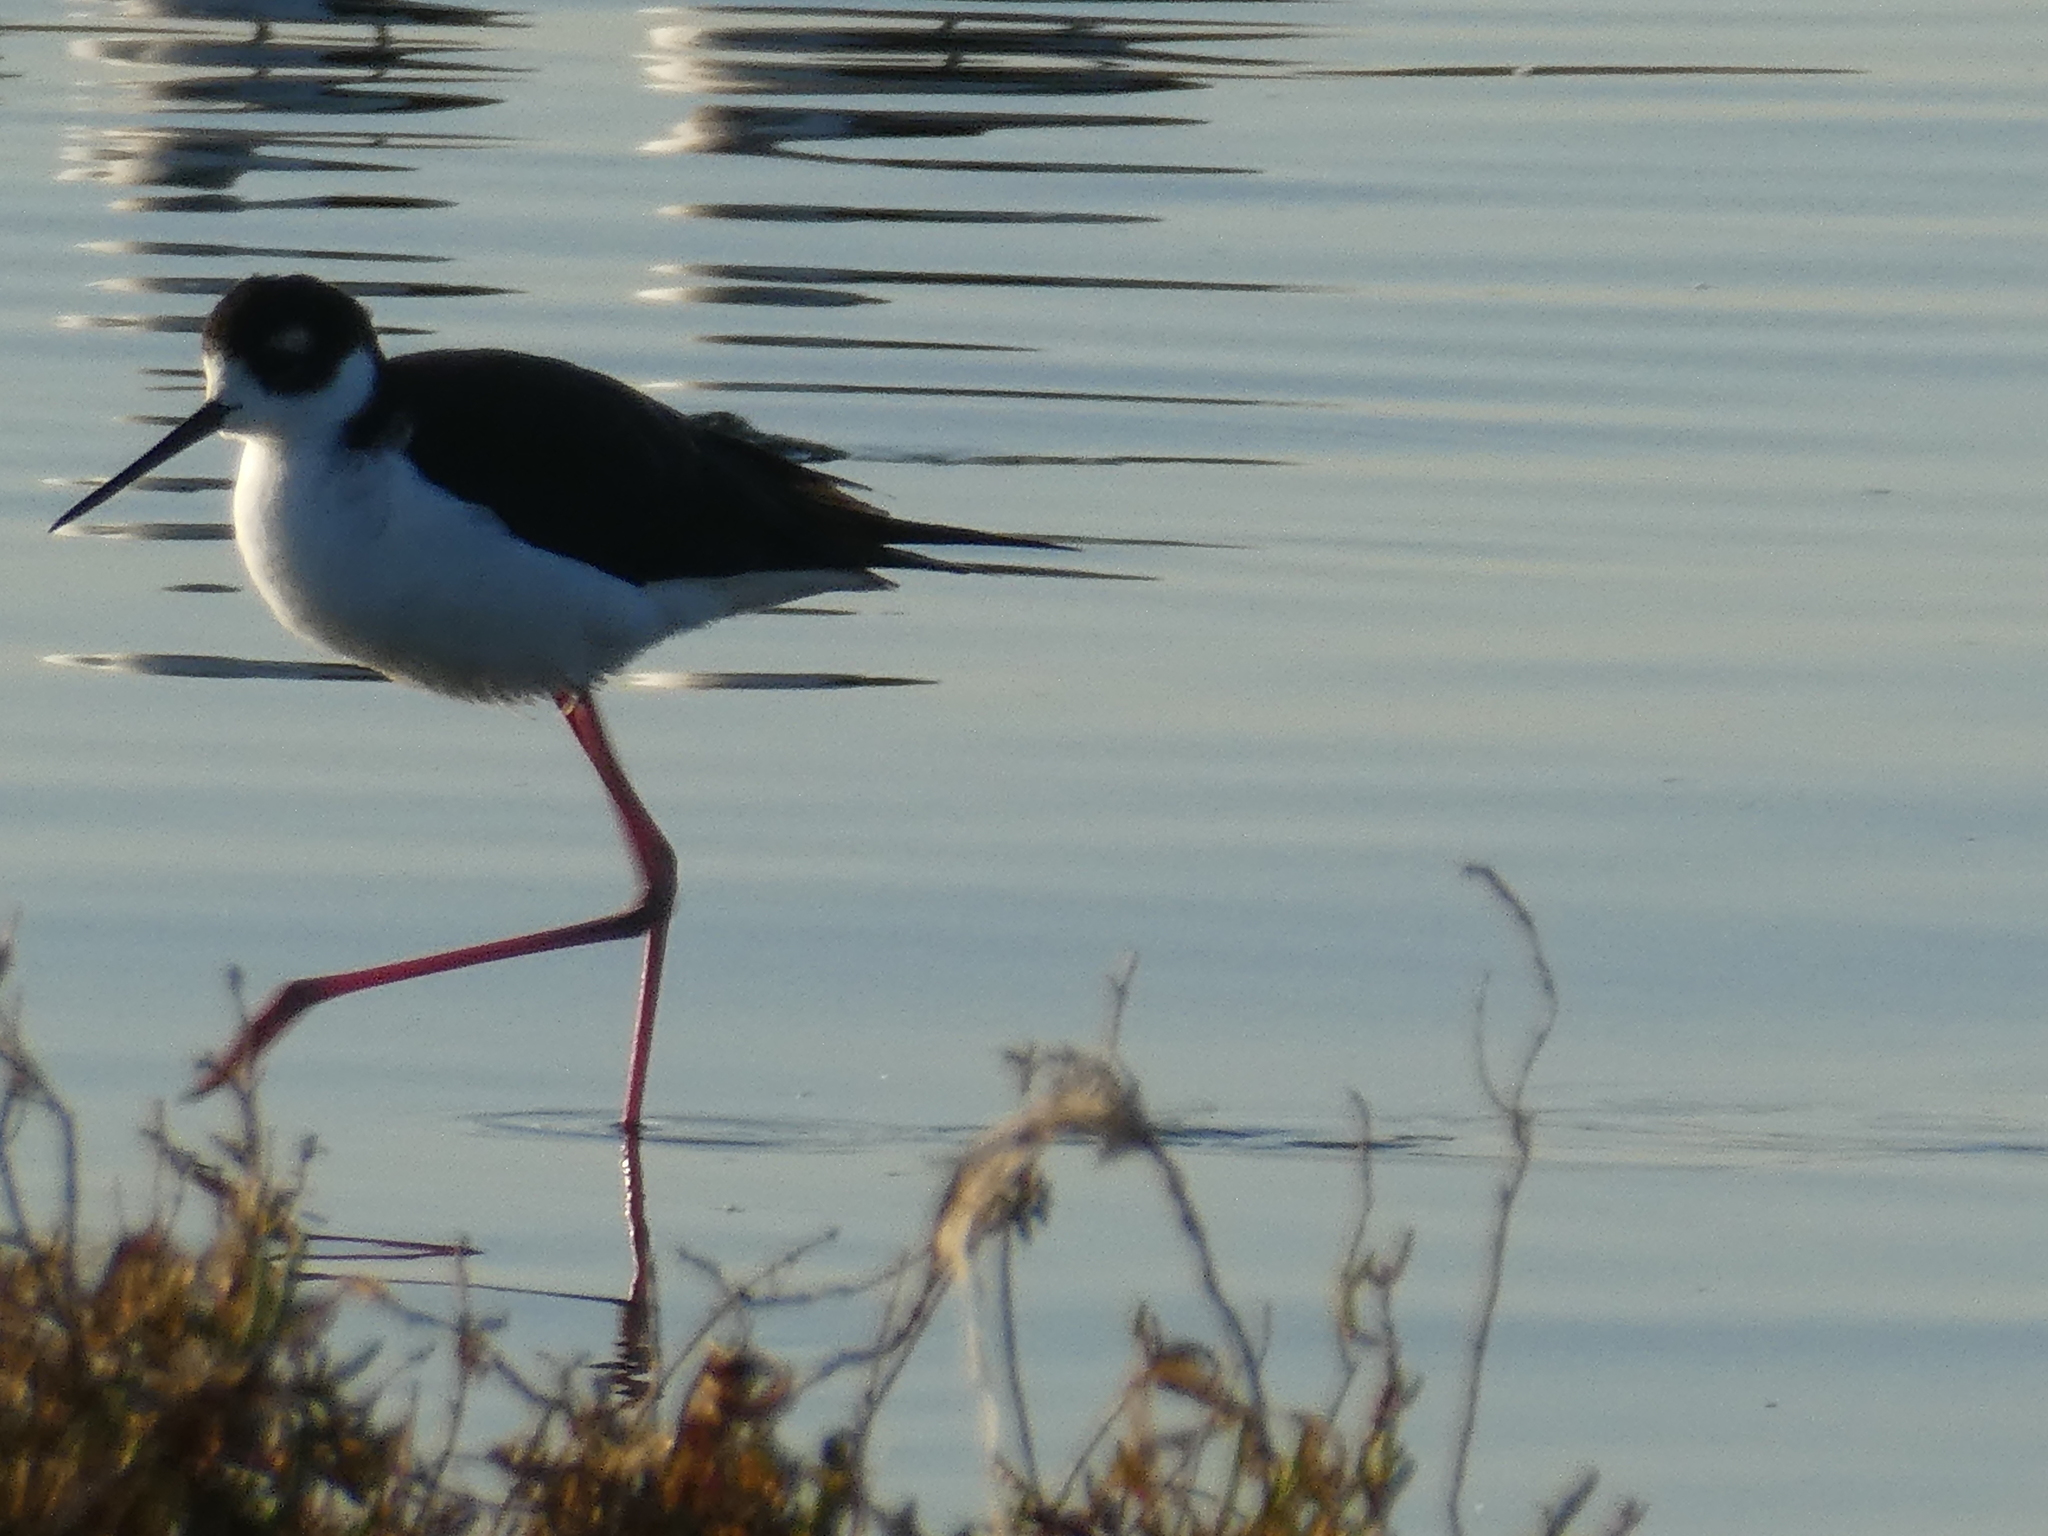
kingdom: Animalia
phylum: Chordata
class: Aves
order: Charadriiformes
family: Recurvirostridae
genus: Himantopus
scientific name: Himantopus mexicanus
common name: Black-necked stilt
